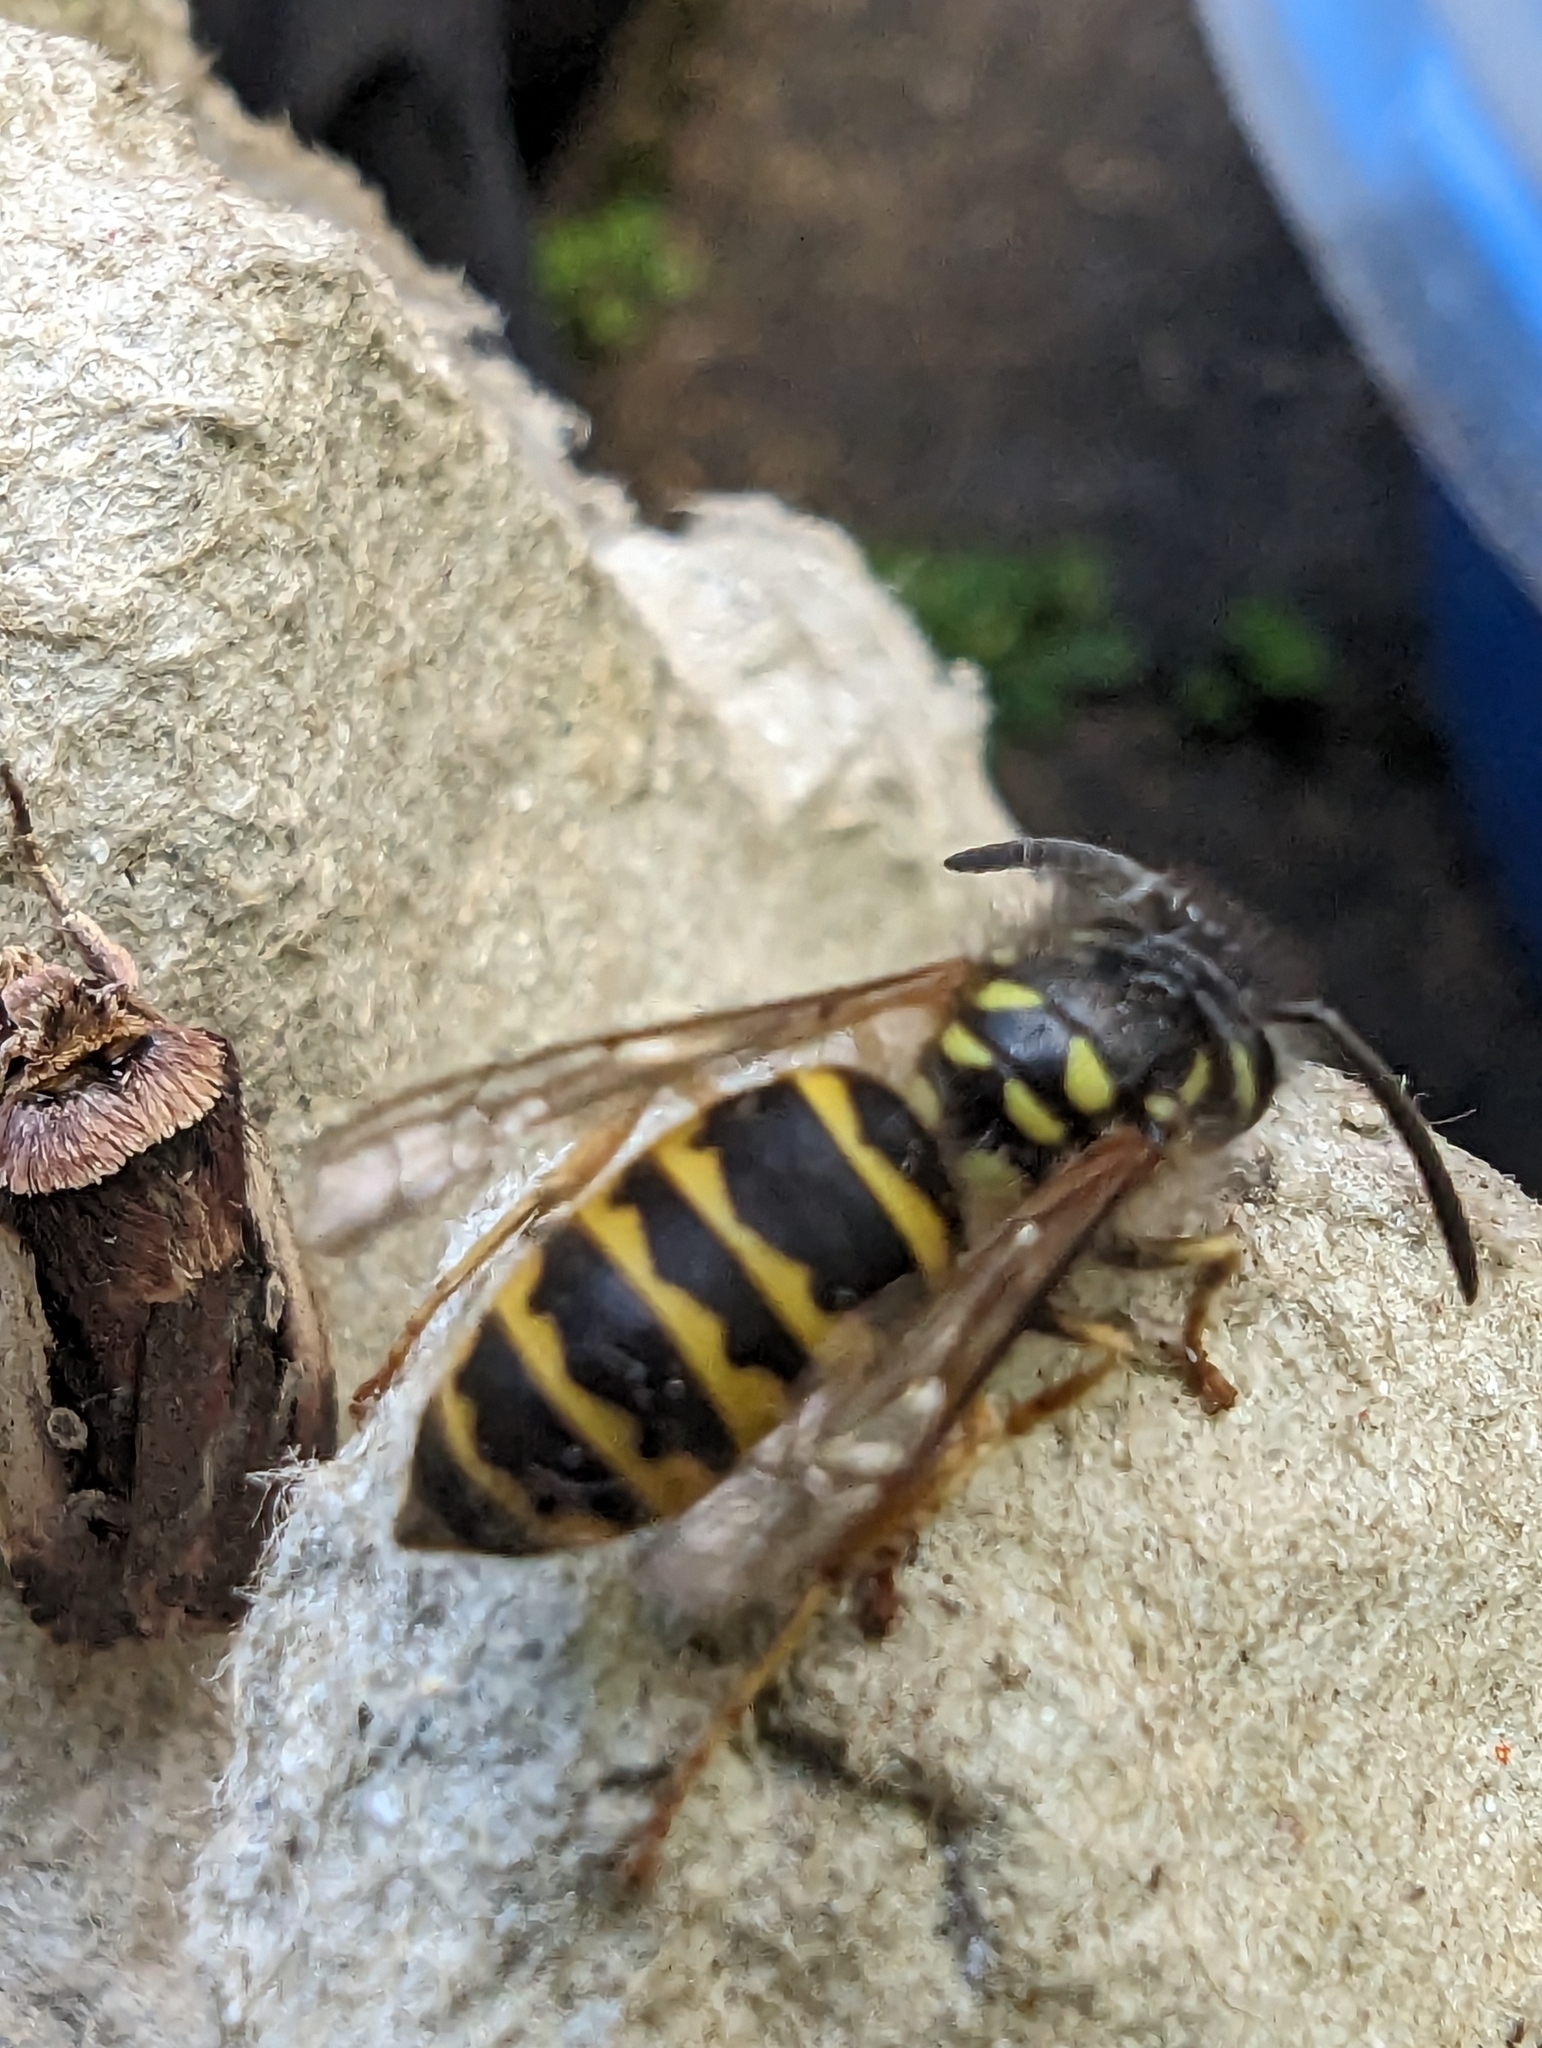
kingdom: Animalia
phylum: Arthropoda
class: Insecta
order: Hymenoptera
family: Vespidae
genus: Vespula
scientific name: Vespula vulgaris
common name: Common wasp
